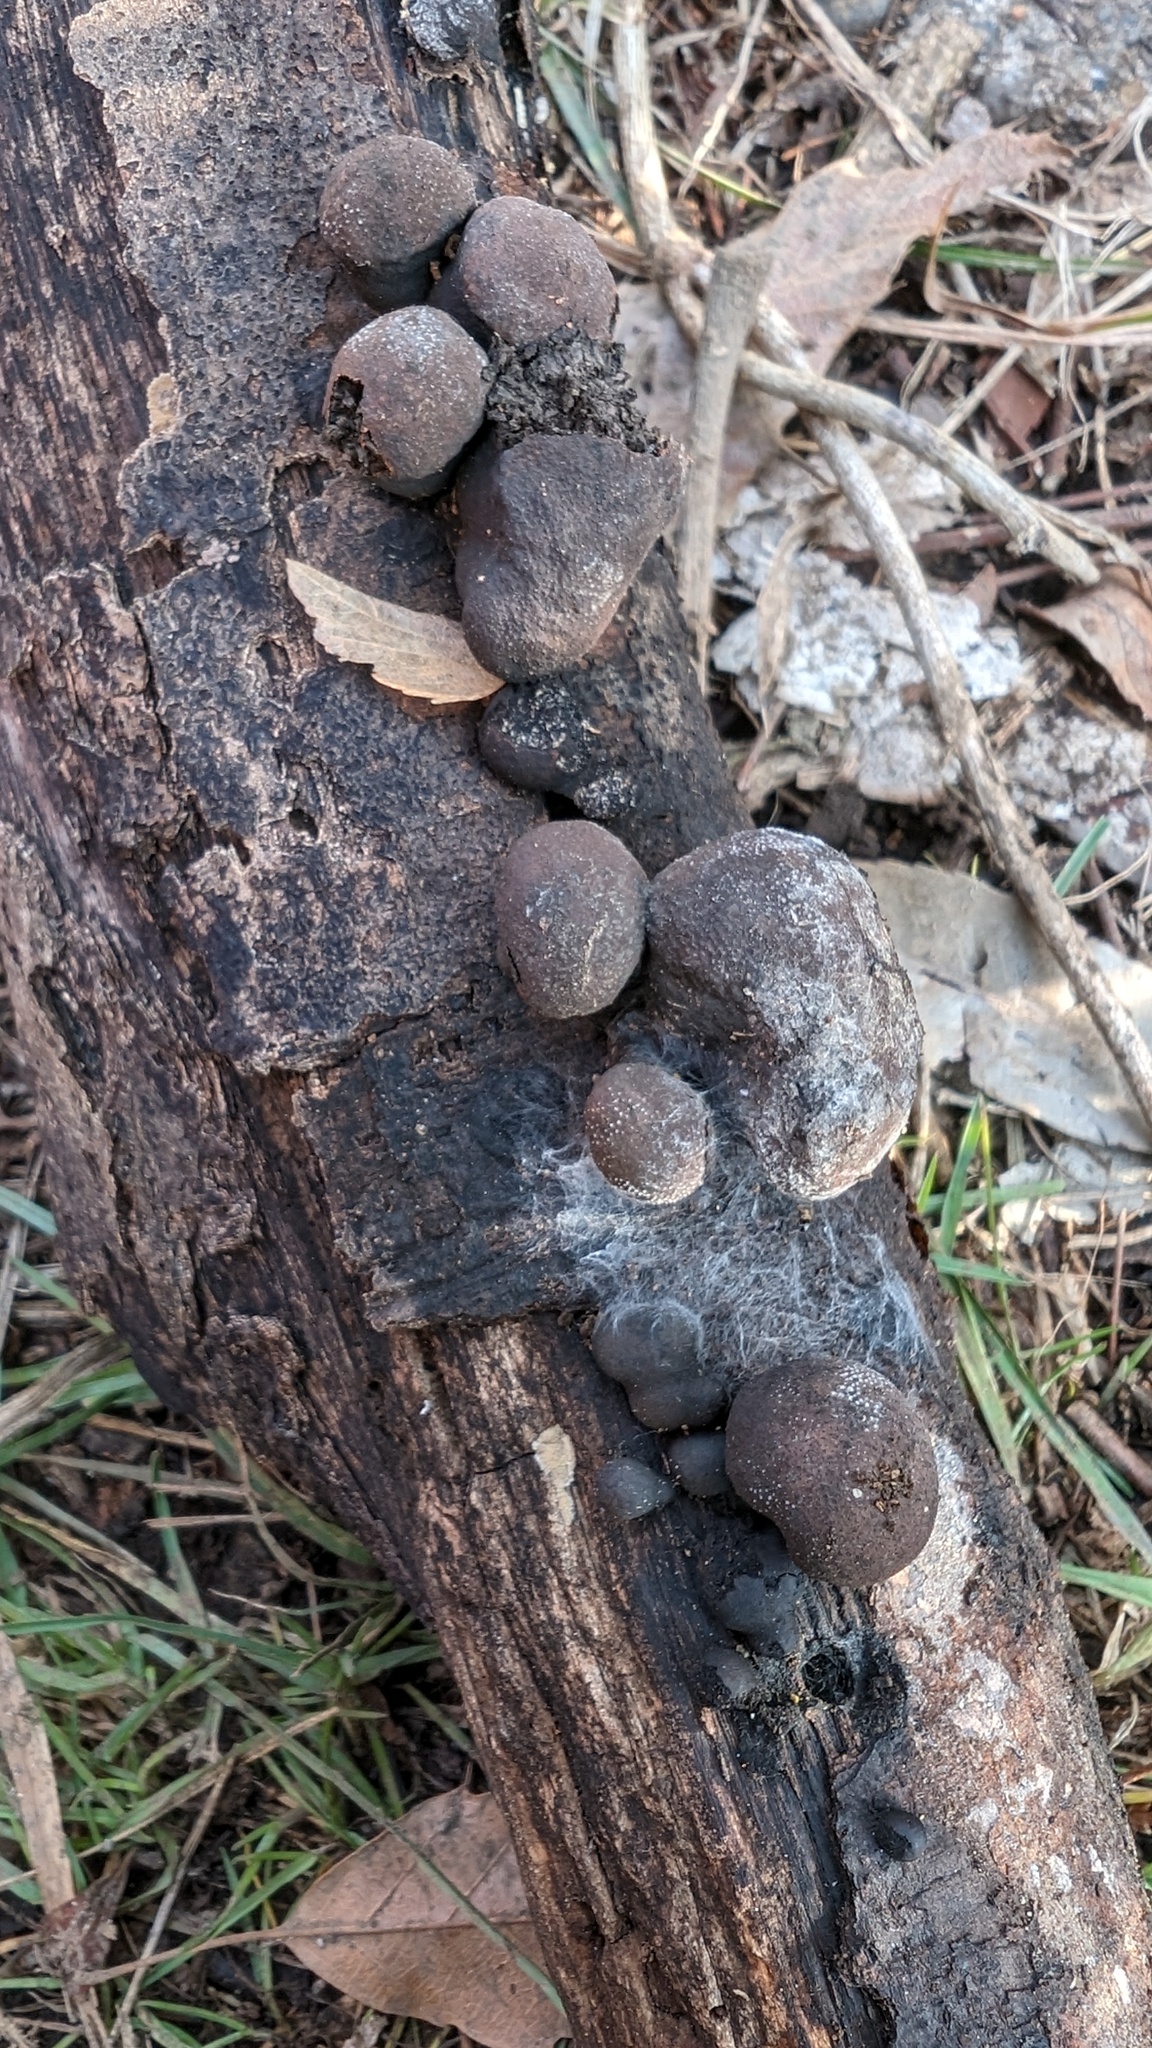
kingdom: Fungi
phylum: Ascomycota
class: Sordariomycetes
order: Xylariales
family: Hypoxylaceae
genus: Daldinia
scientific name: Daldinia childiae
